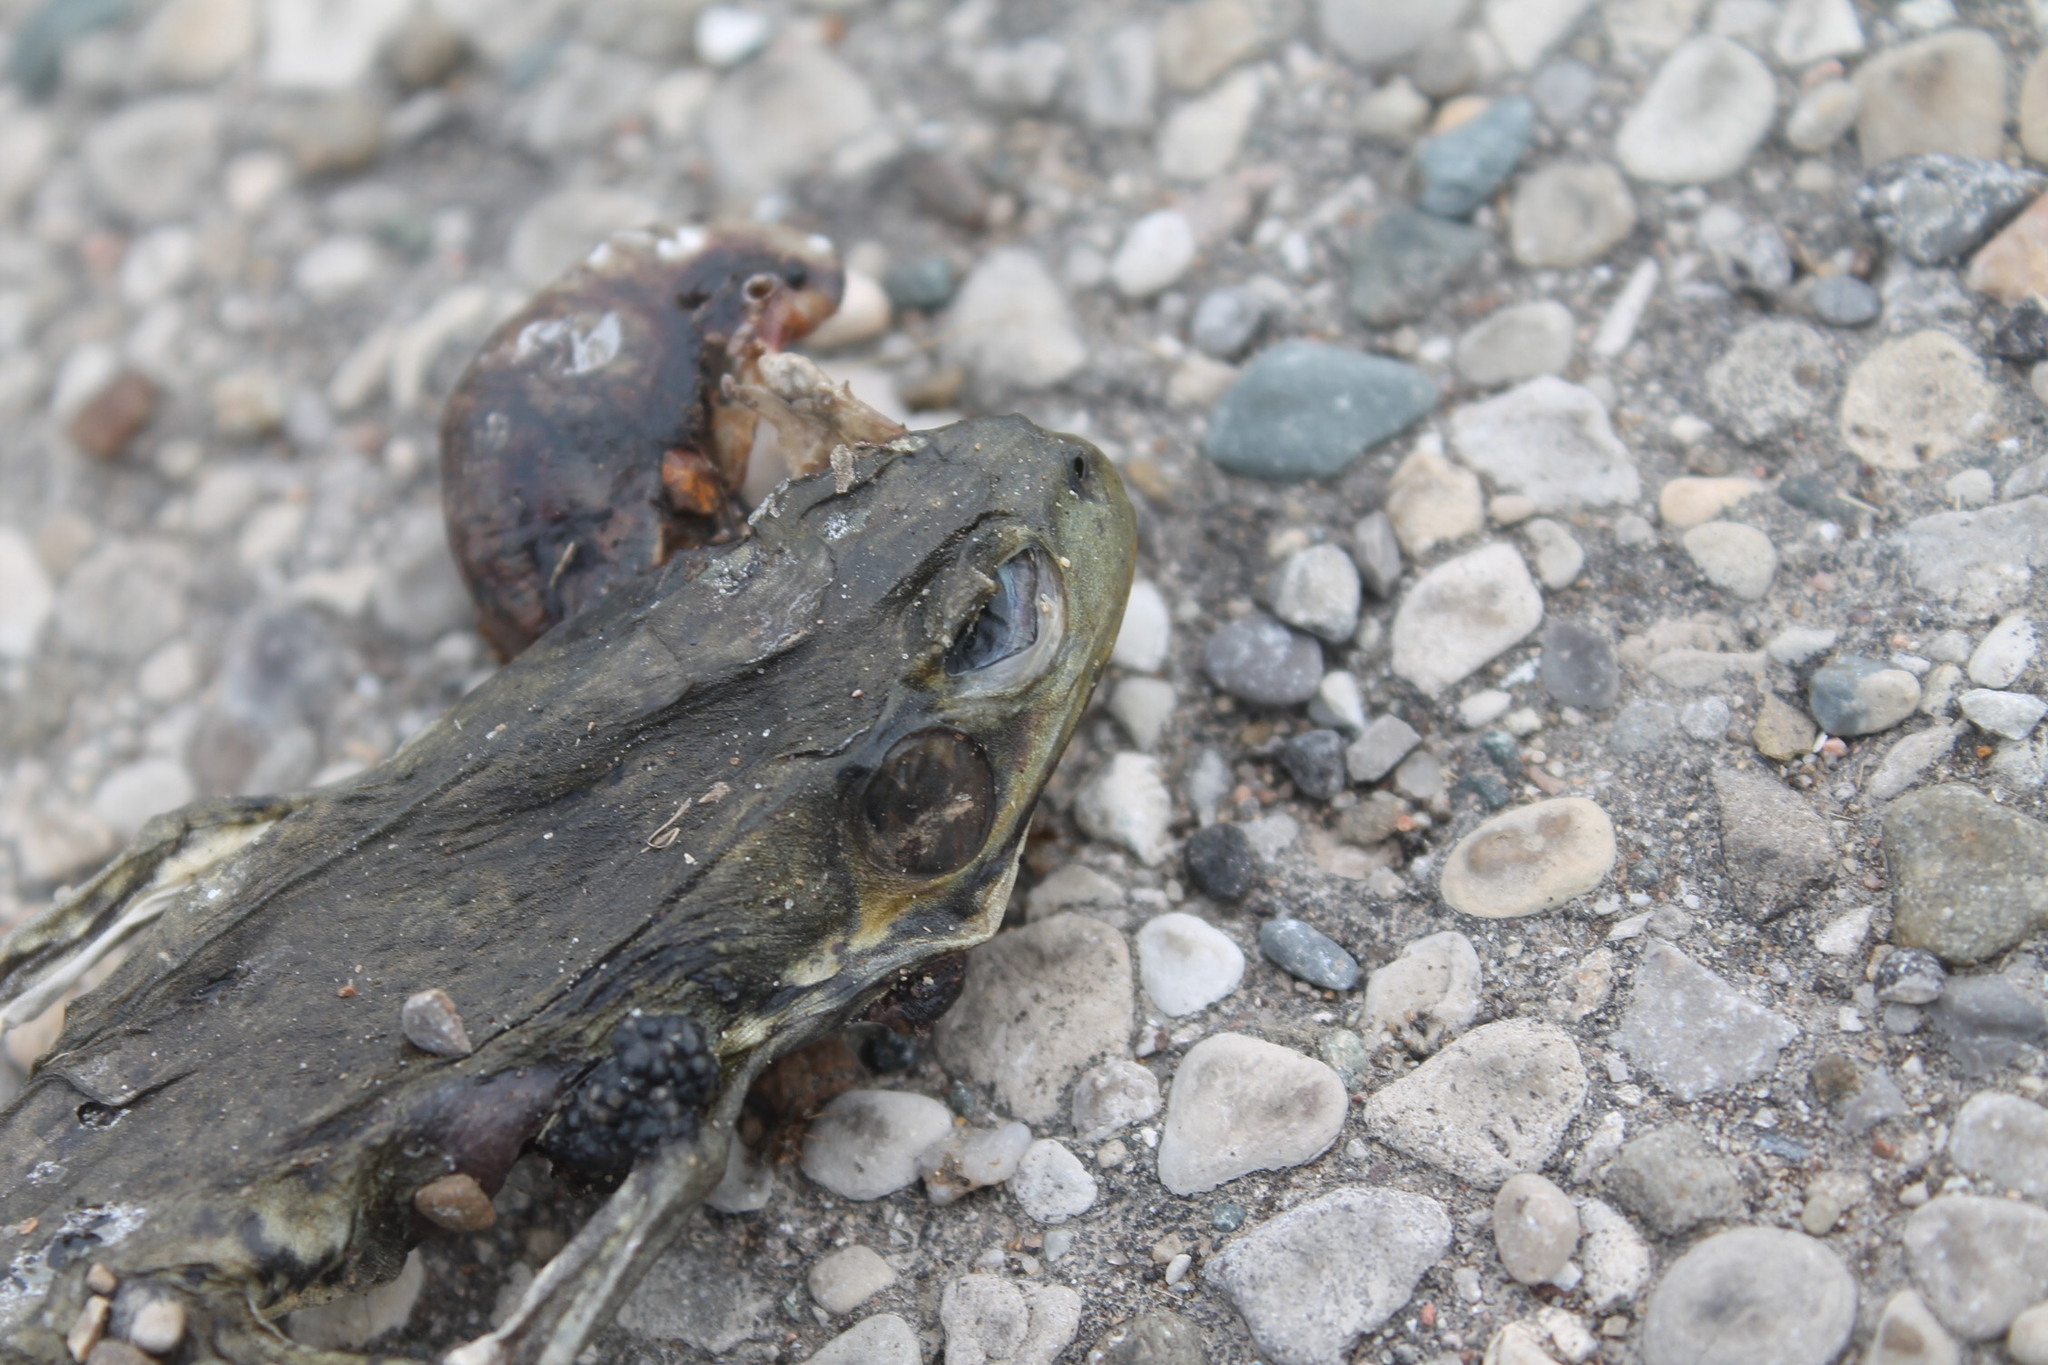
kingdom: Animalia
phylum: Chordata
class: Amphibia
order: Anura
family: Ranidae
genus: Lithobates
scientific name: Lithobates clamitans
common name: Green frog
